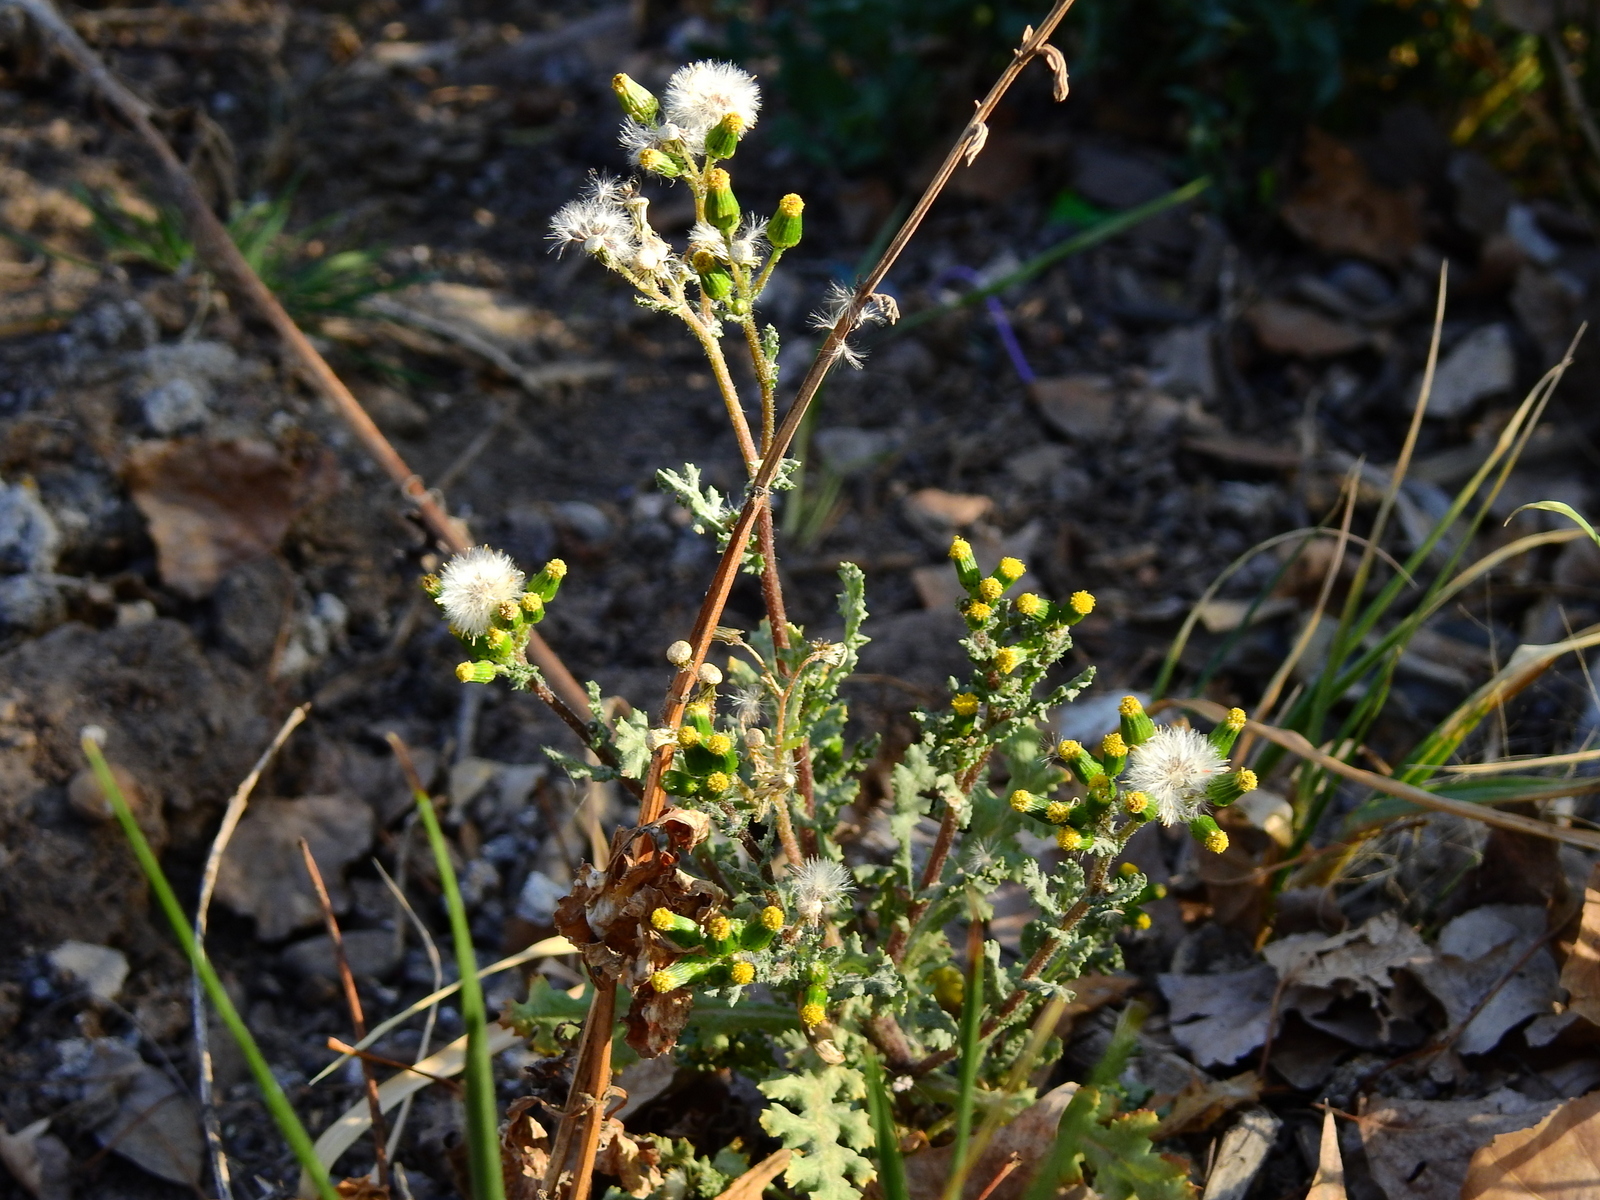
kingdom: Plantae
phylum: Tracheophyta
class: Magnoliopsida
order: Asterales
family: Asteraceae
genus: Senecio
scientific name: Senecio vulgaris
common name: Old-man-in-the-spring
